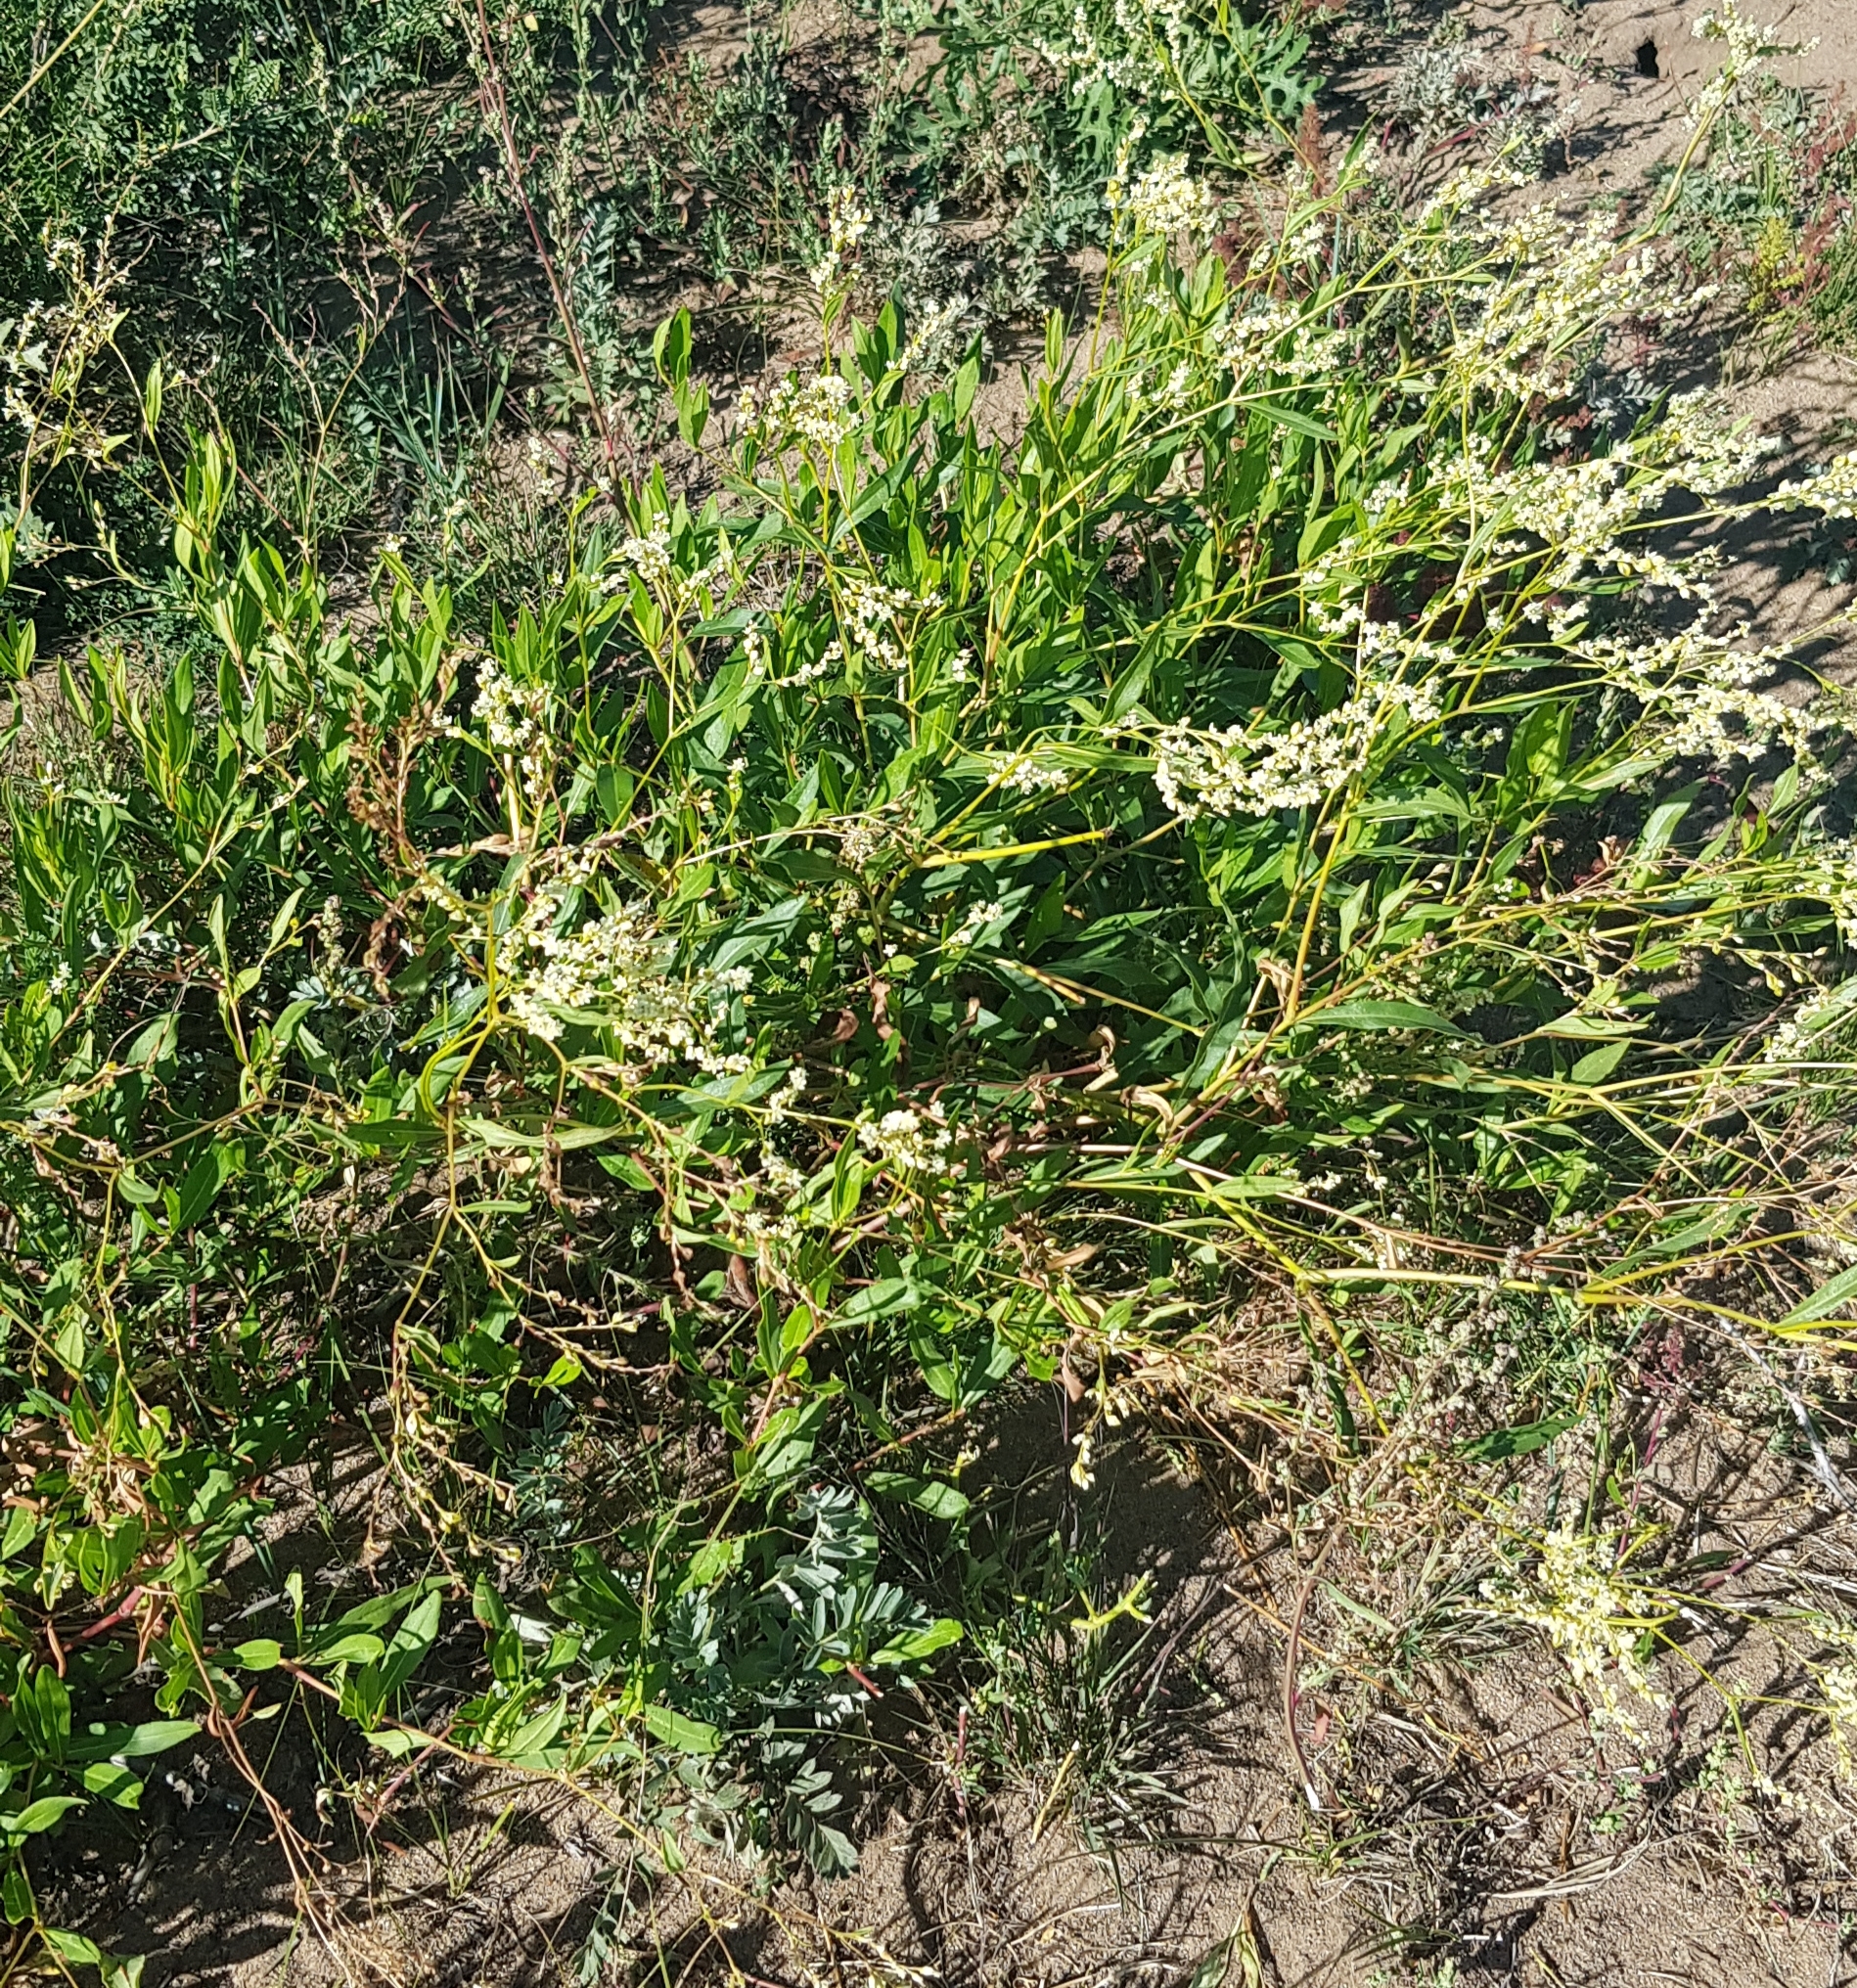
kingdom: Plantae
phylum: Tracheophyta
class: Magnoliopsida
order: Caryophyllales
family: Polygonaceae
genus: Koenigia
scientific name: Koenigia divaricata
